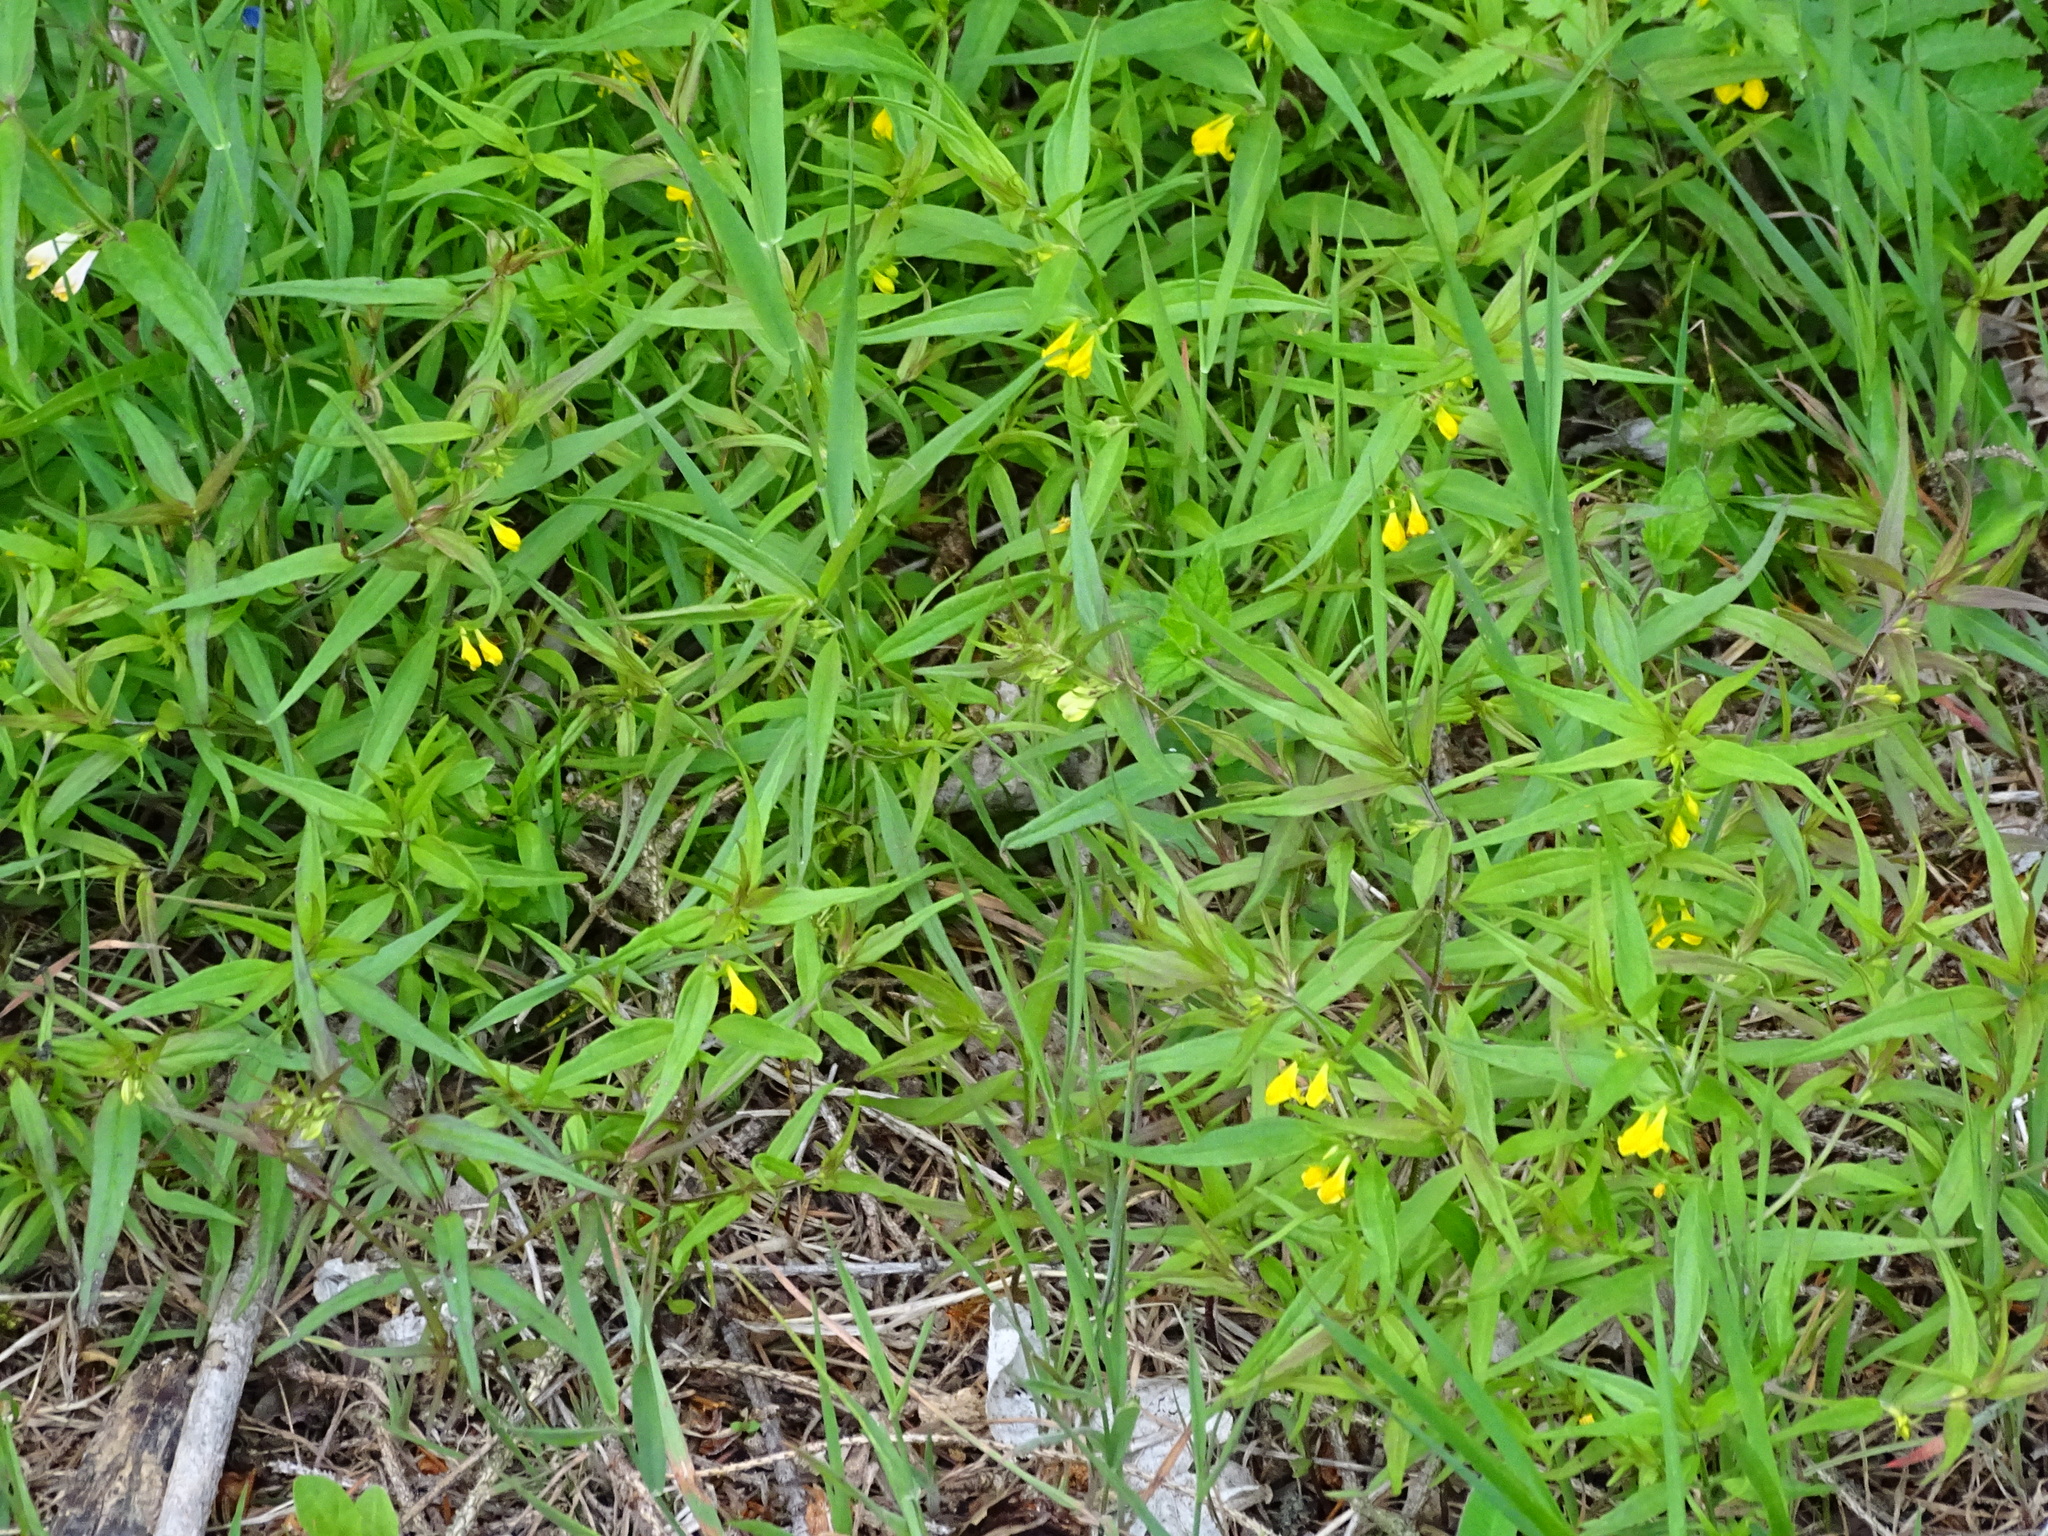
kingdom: Plantae
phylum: Tracheophyta
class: Magnoliopsida
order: Lamiales
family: Orobanchaceae
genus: Melampyrum
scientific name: Melampyrum sylvaticum
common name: Small cow-wheat
